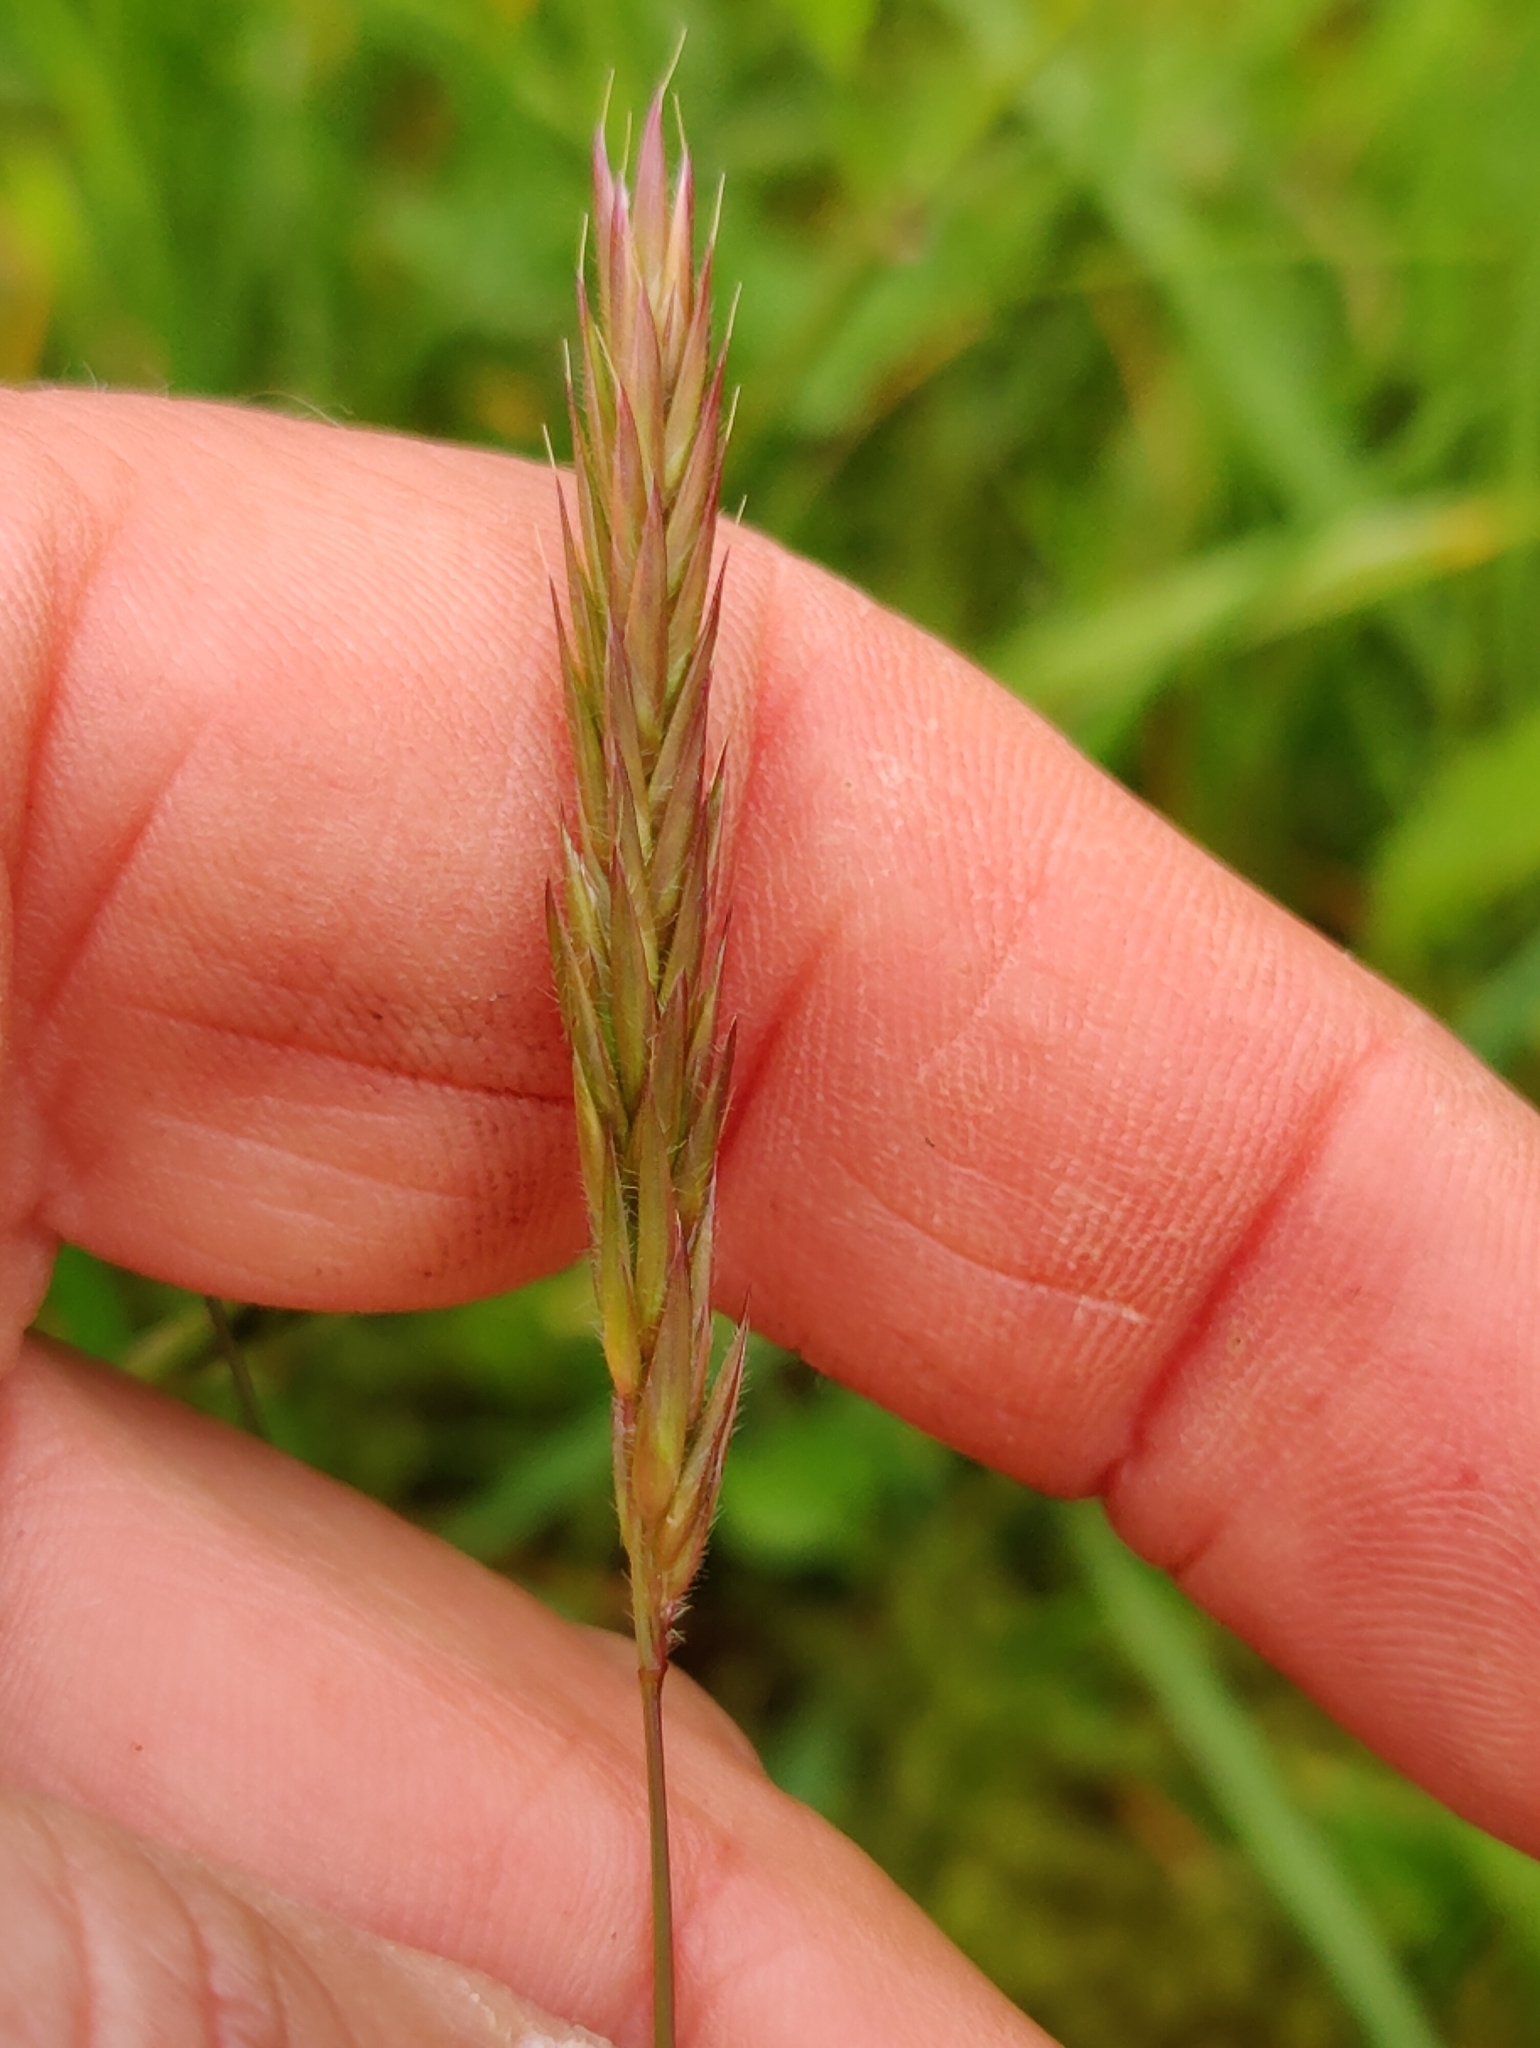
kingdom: Plantae
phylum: Tracheophyta
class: Liliopsida
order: Poales
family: Poaceae
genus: Anthoxanthum
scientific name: Anthoxanthum odoratum
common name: Sweet vernalgrass
